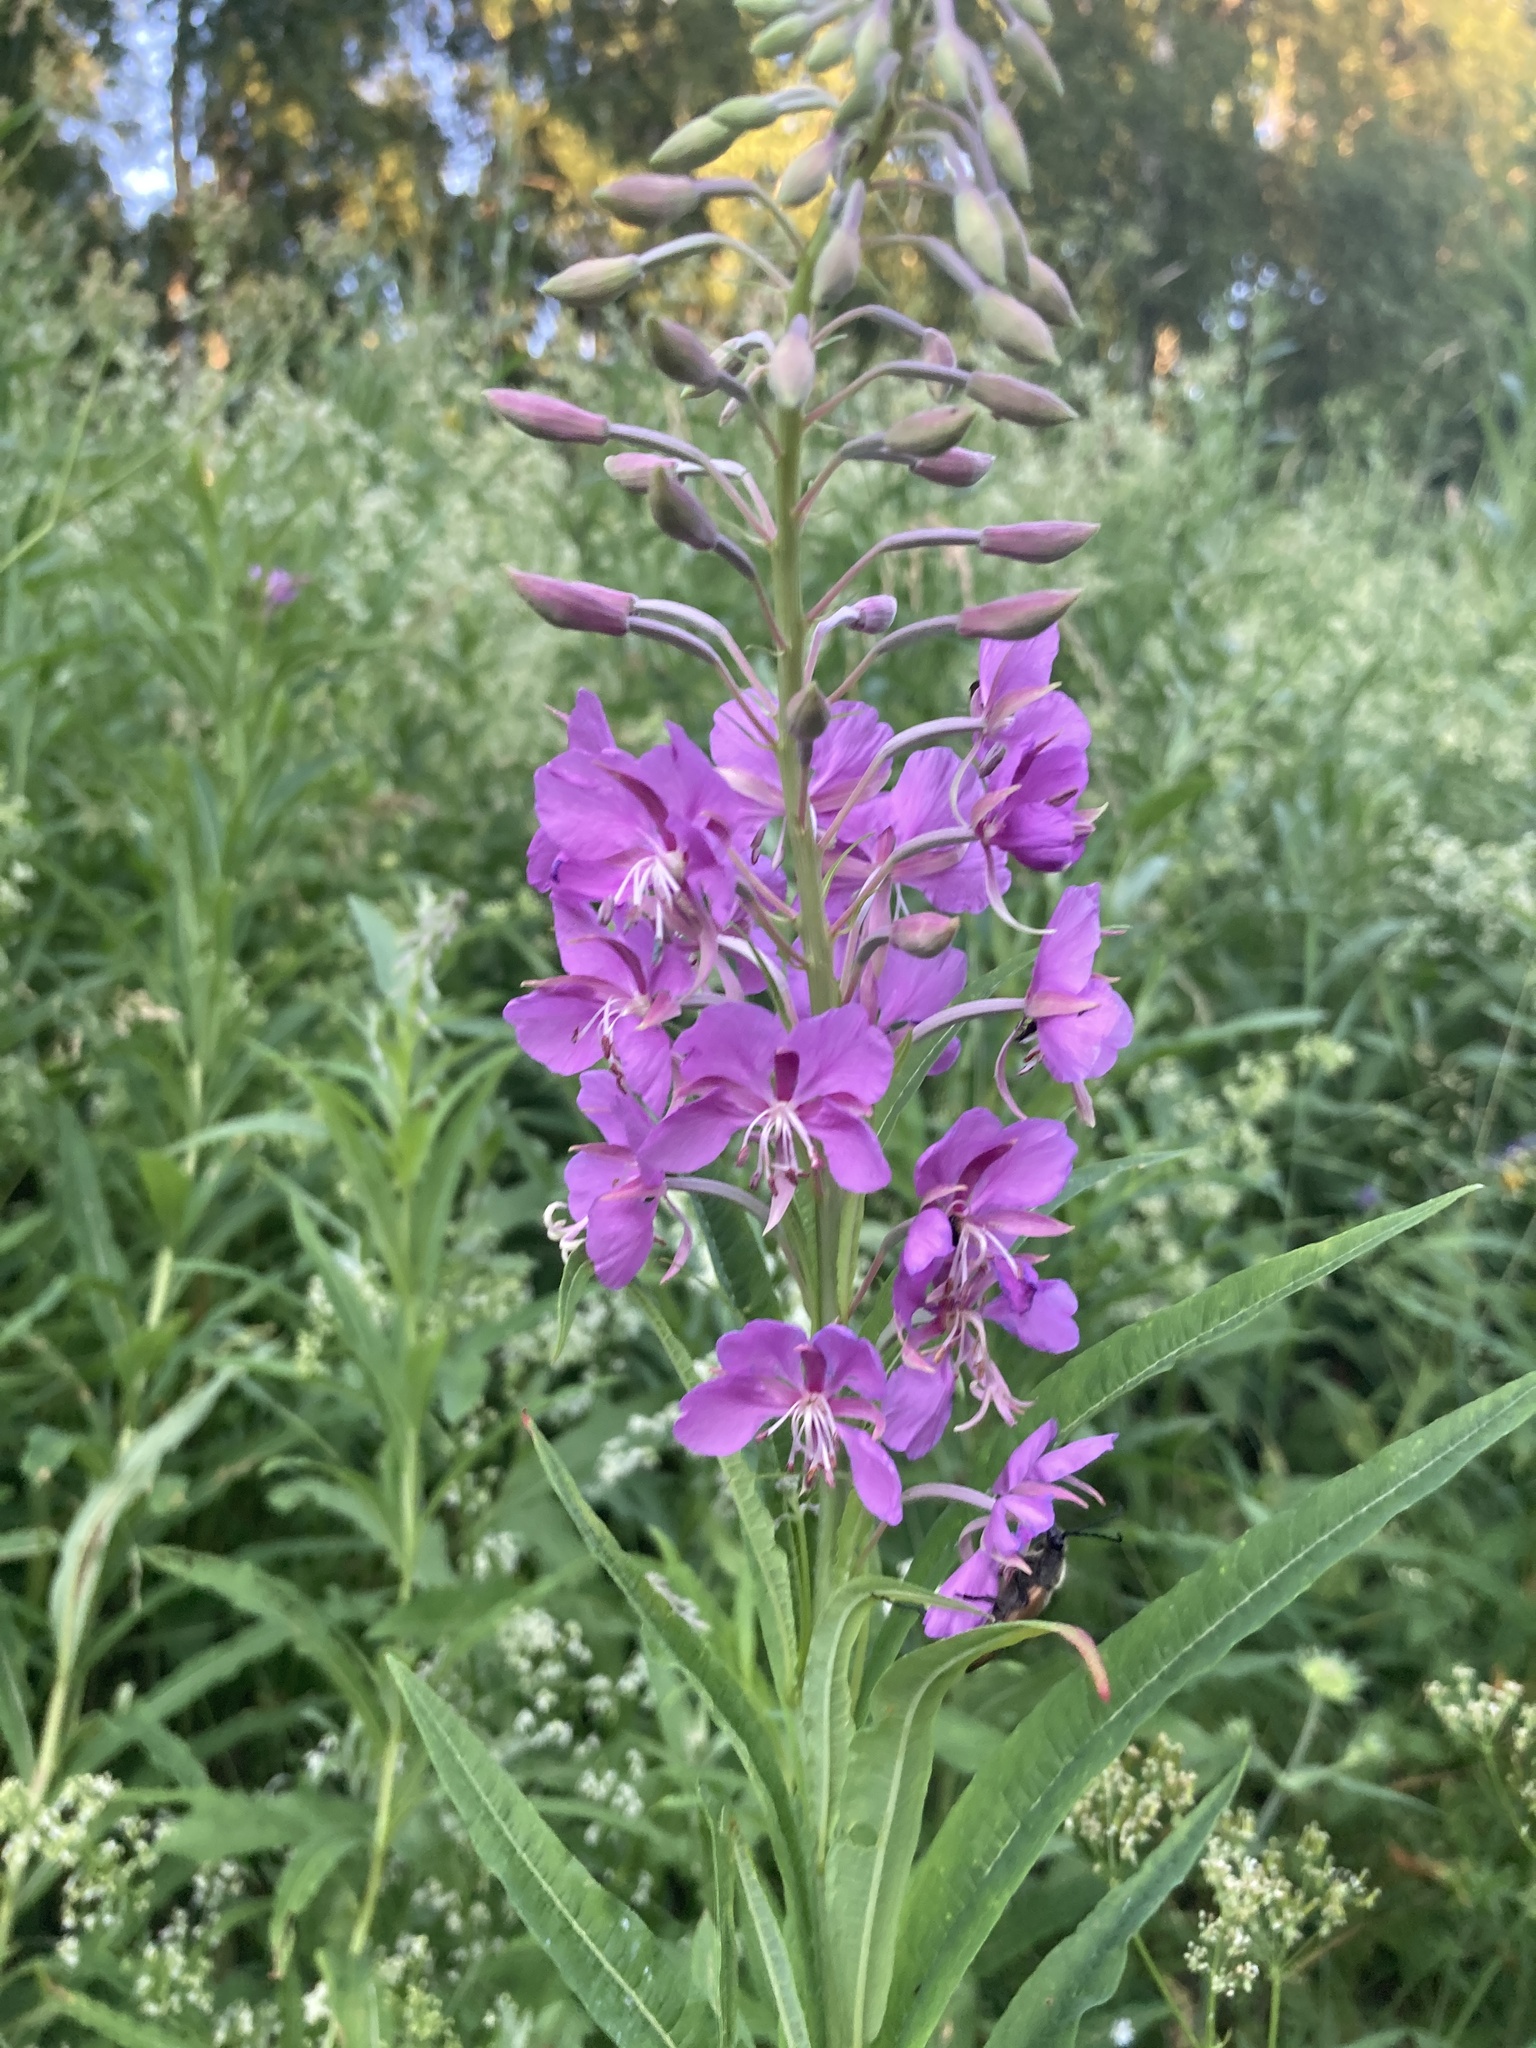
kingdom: Plantae
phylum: Tracheophyta
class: Magnoliopsida
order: Myrtales
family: Onagraceae
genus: Chamaenerion
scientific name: Chamaenerion angustifolium
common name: Fireweed
